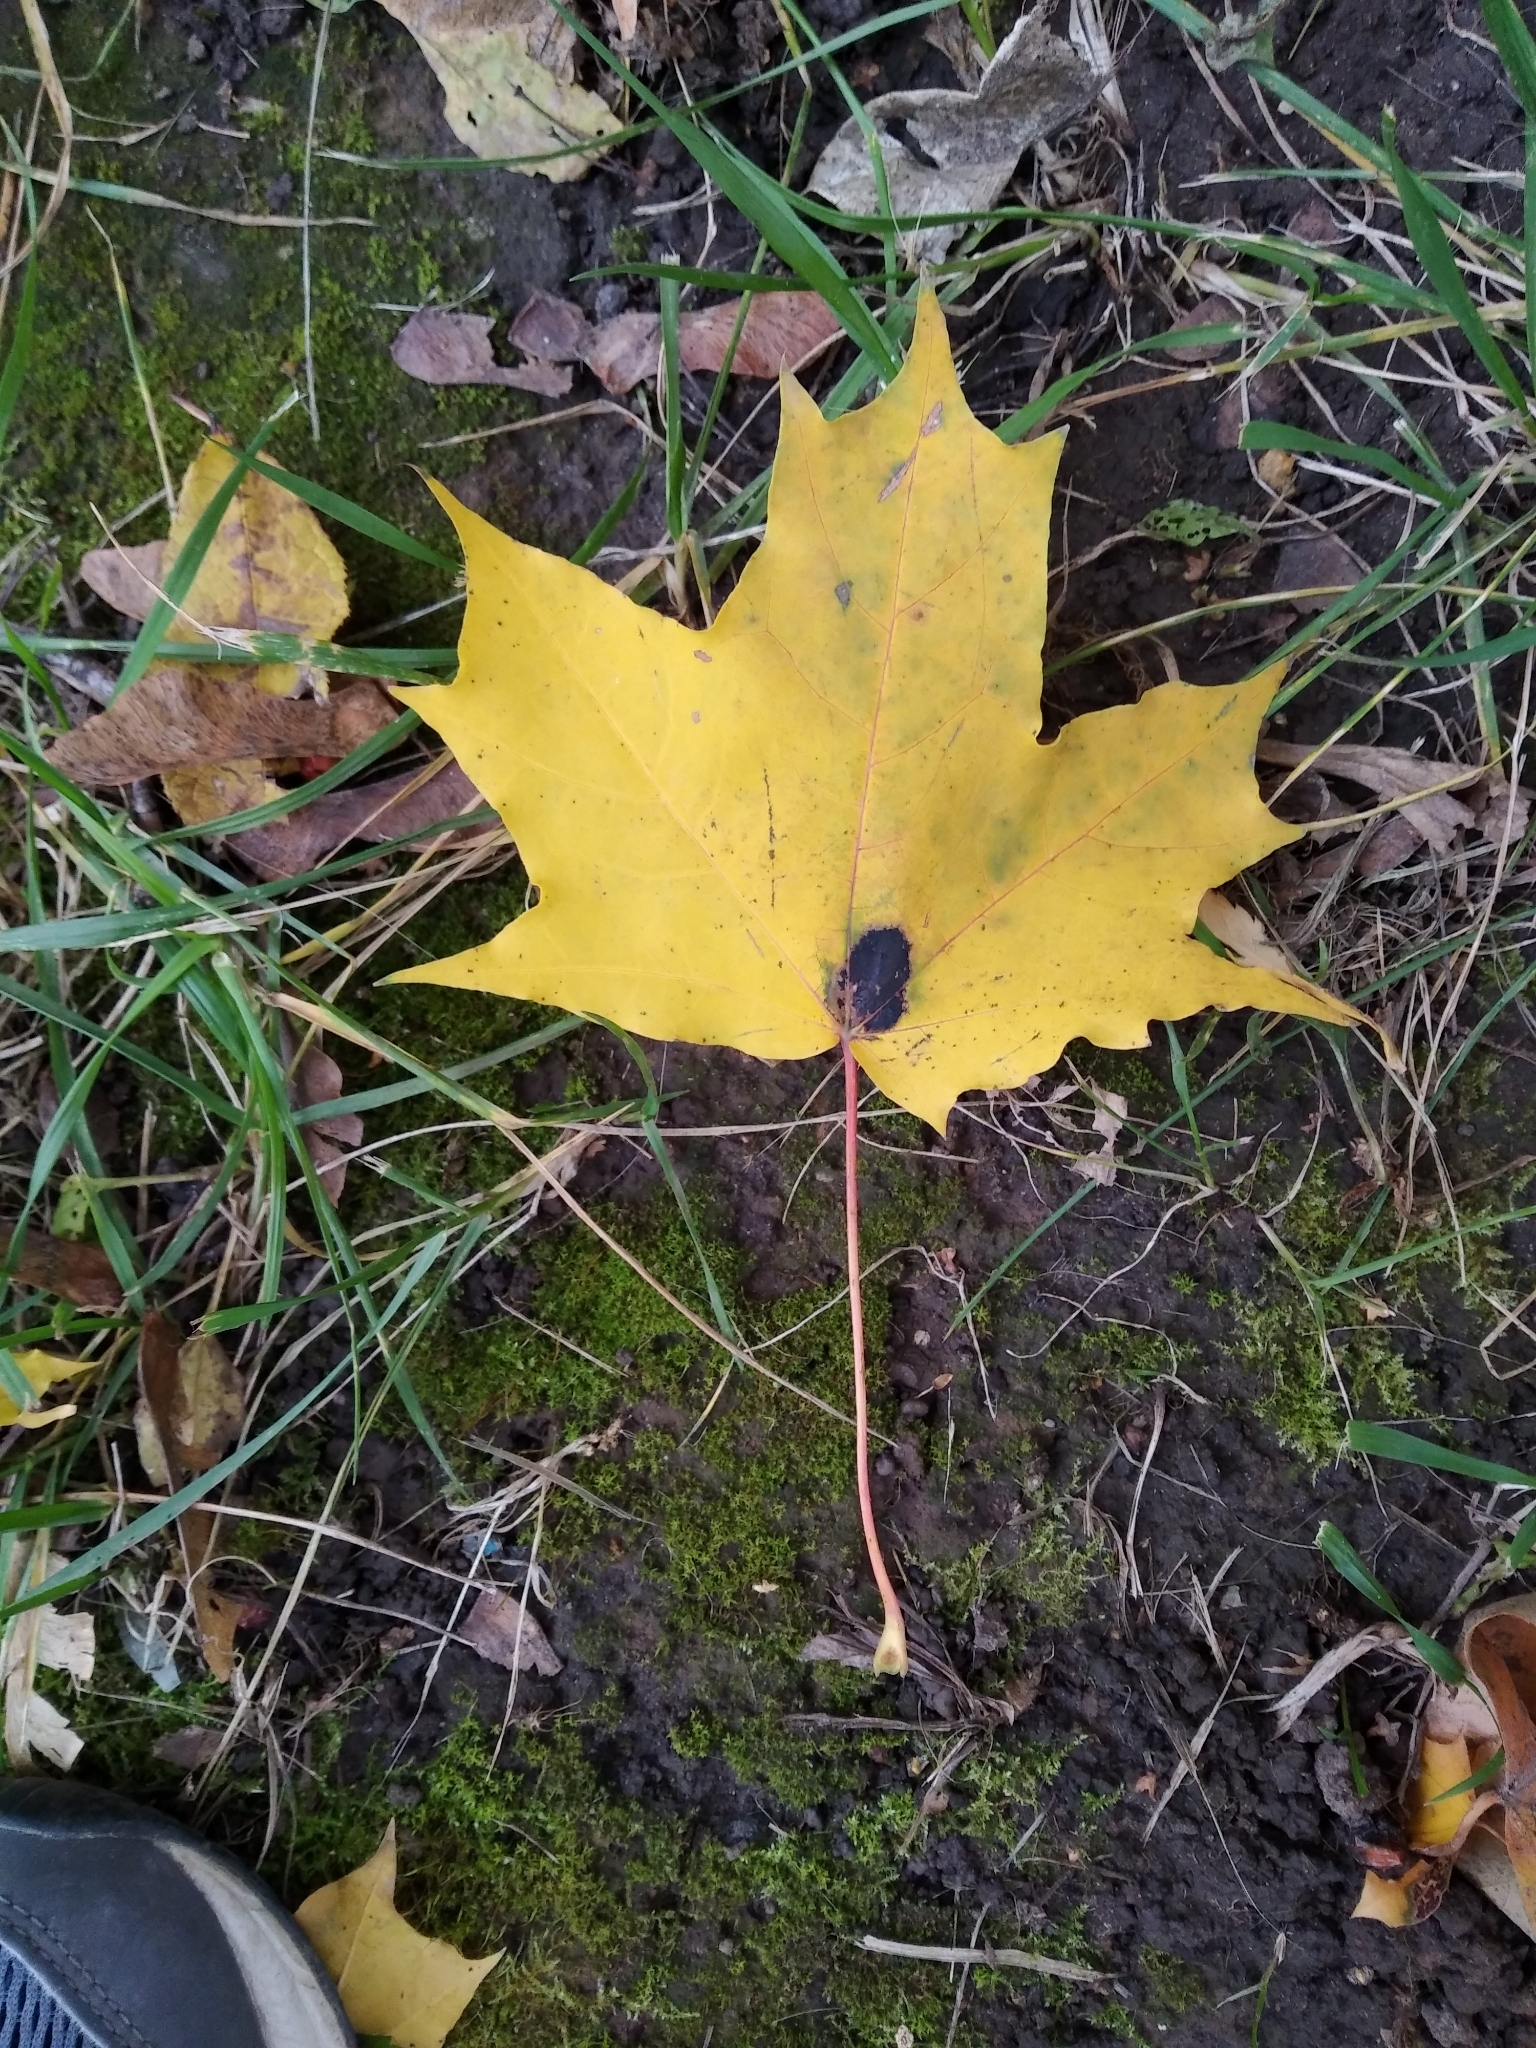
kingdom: Plantae
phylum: Tracheophyta
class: Magnoliopsida
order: Sapindales
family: Sapindaceae
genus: Acer
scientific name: Acer platanoides
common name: Norway maple
